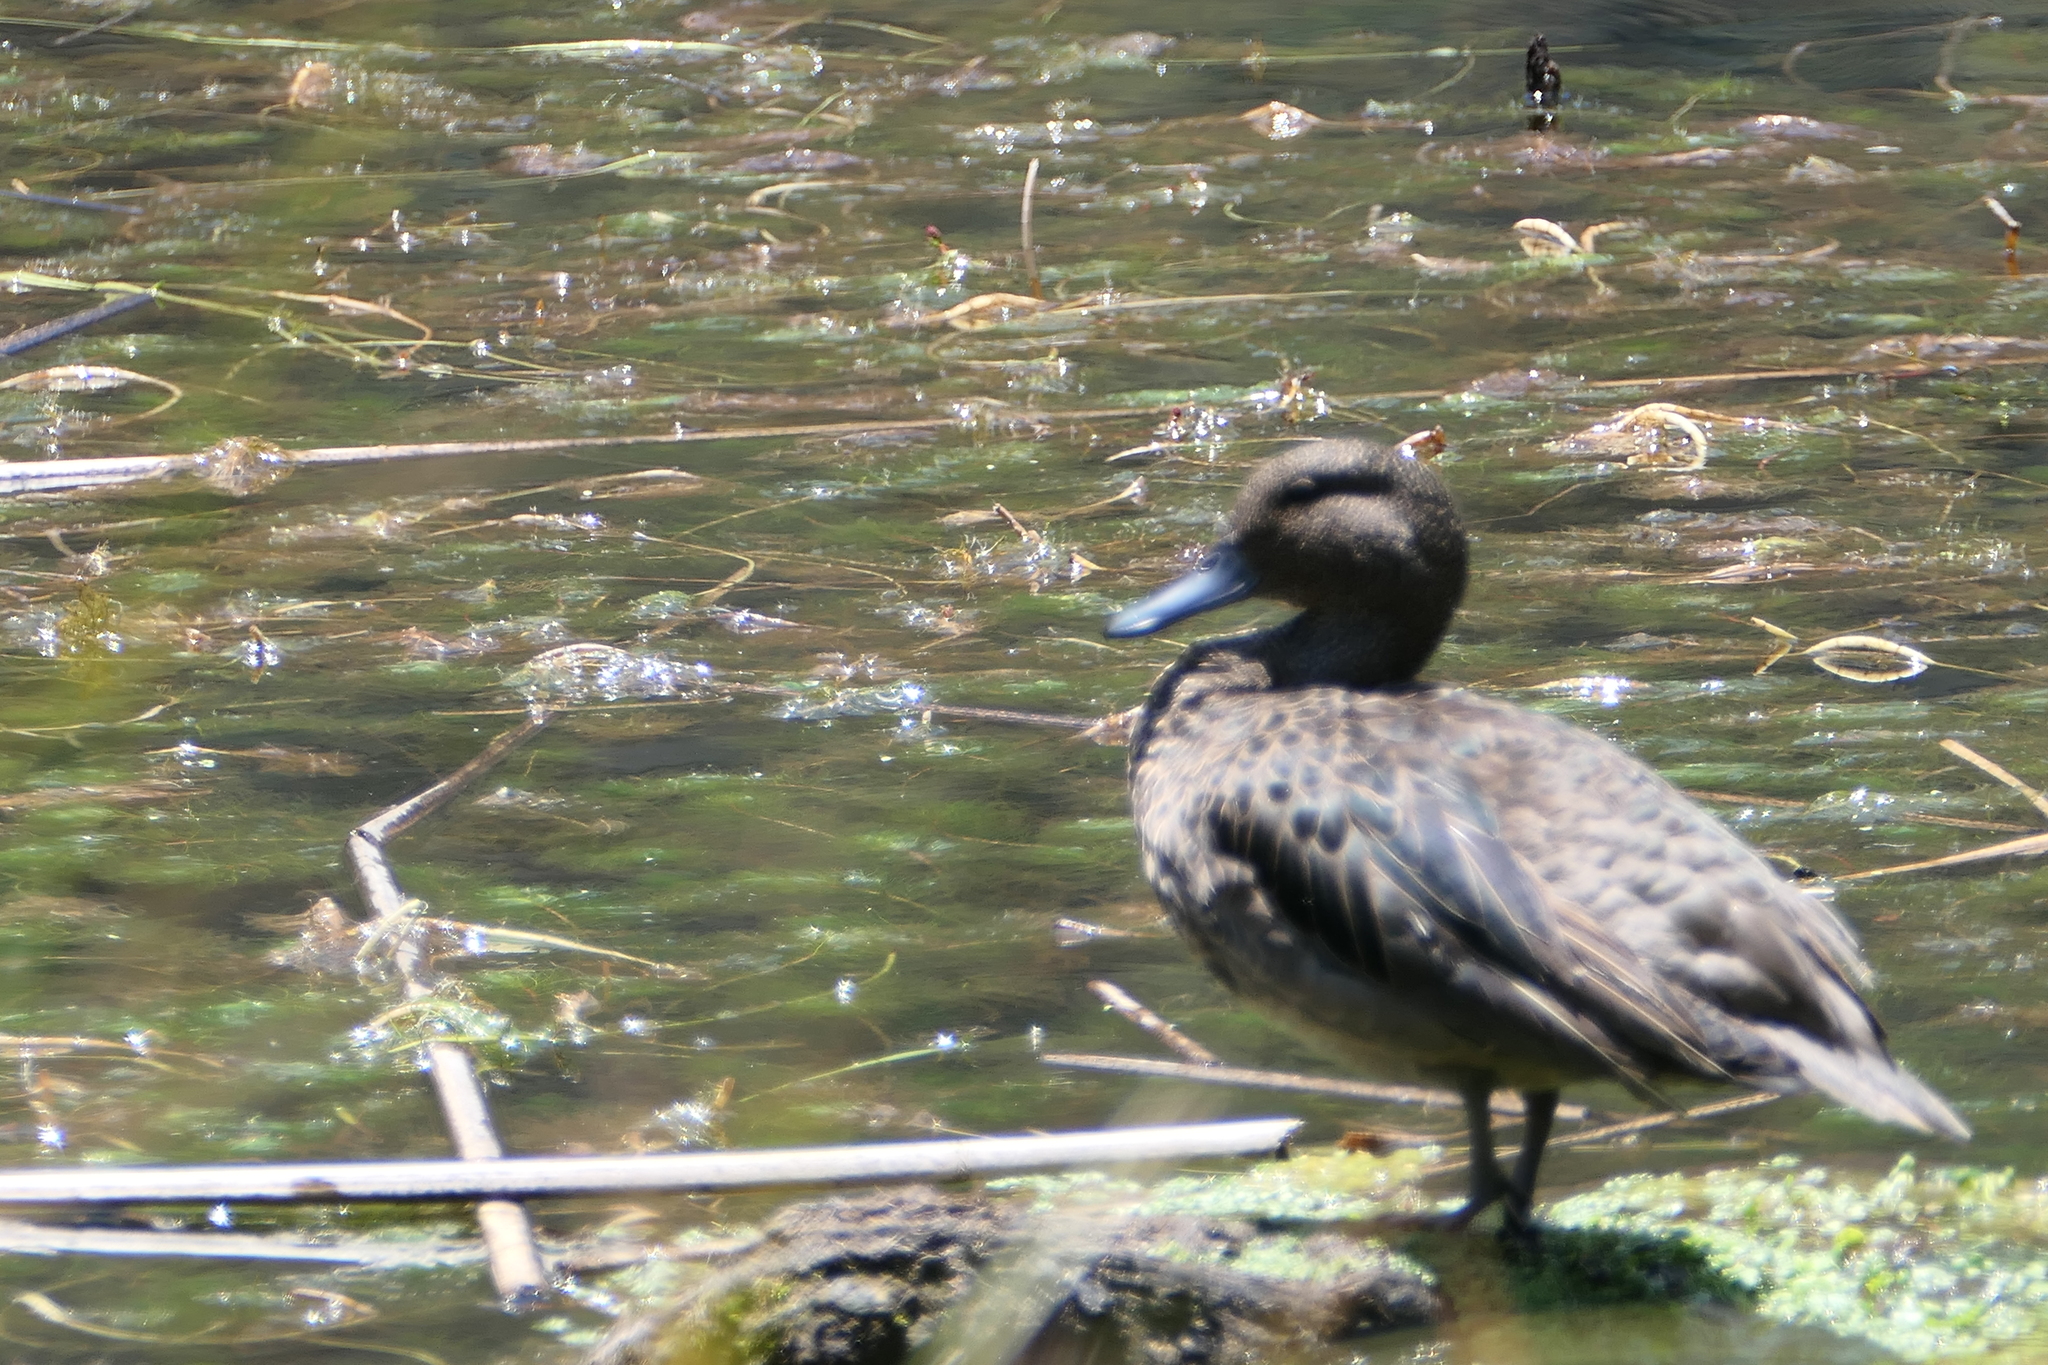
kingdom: Animalia
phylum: Chordata
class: Aves
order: Anseriformes
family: Anatidae
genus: Anas
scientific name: Anas andium
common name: Andean teal
